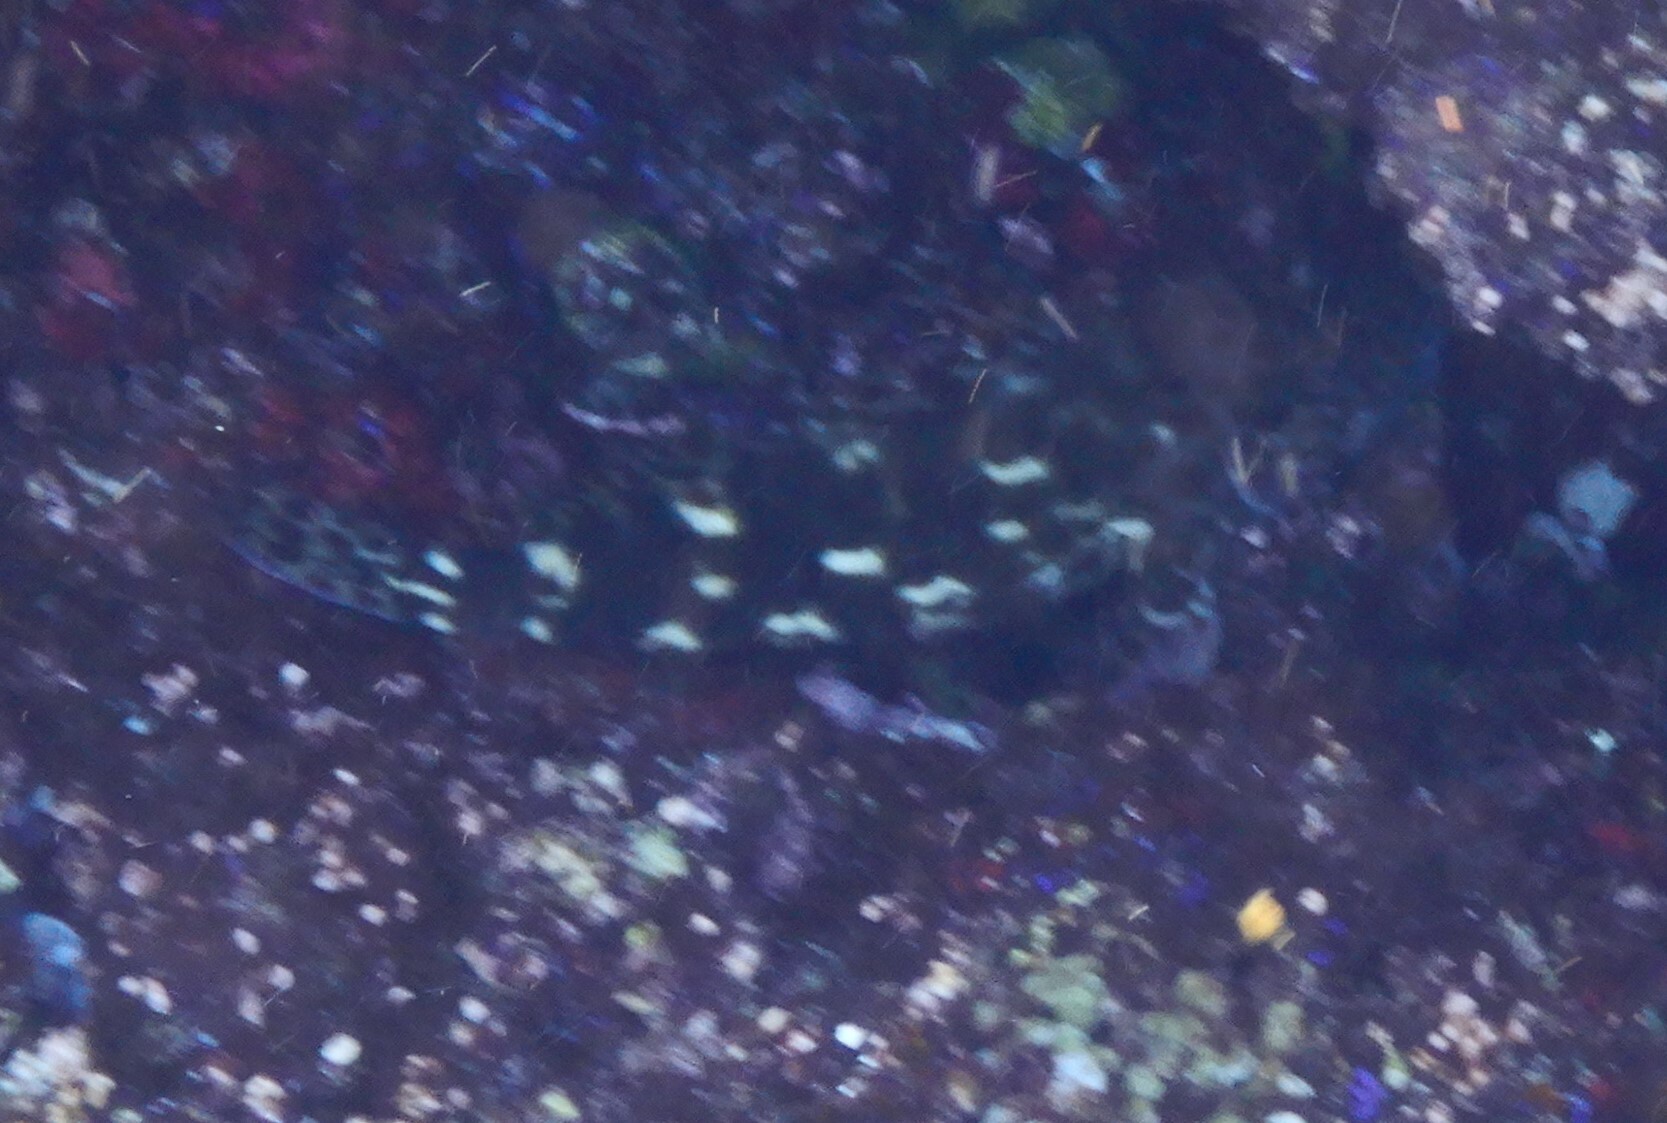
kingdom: Animalia
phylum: Chordata
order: Perciformes
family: Cirrhitidae
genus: Cirrhitus
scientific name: Cirrhitus pinnulatus
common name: Stocky hawkfish
